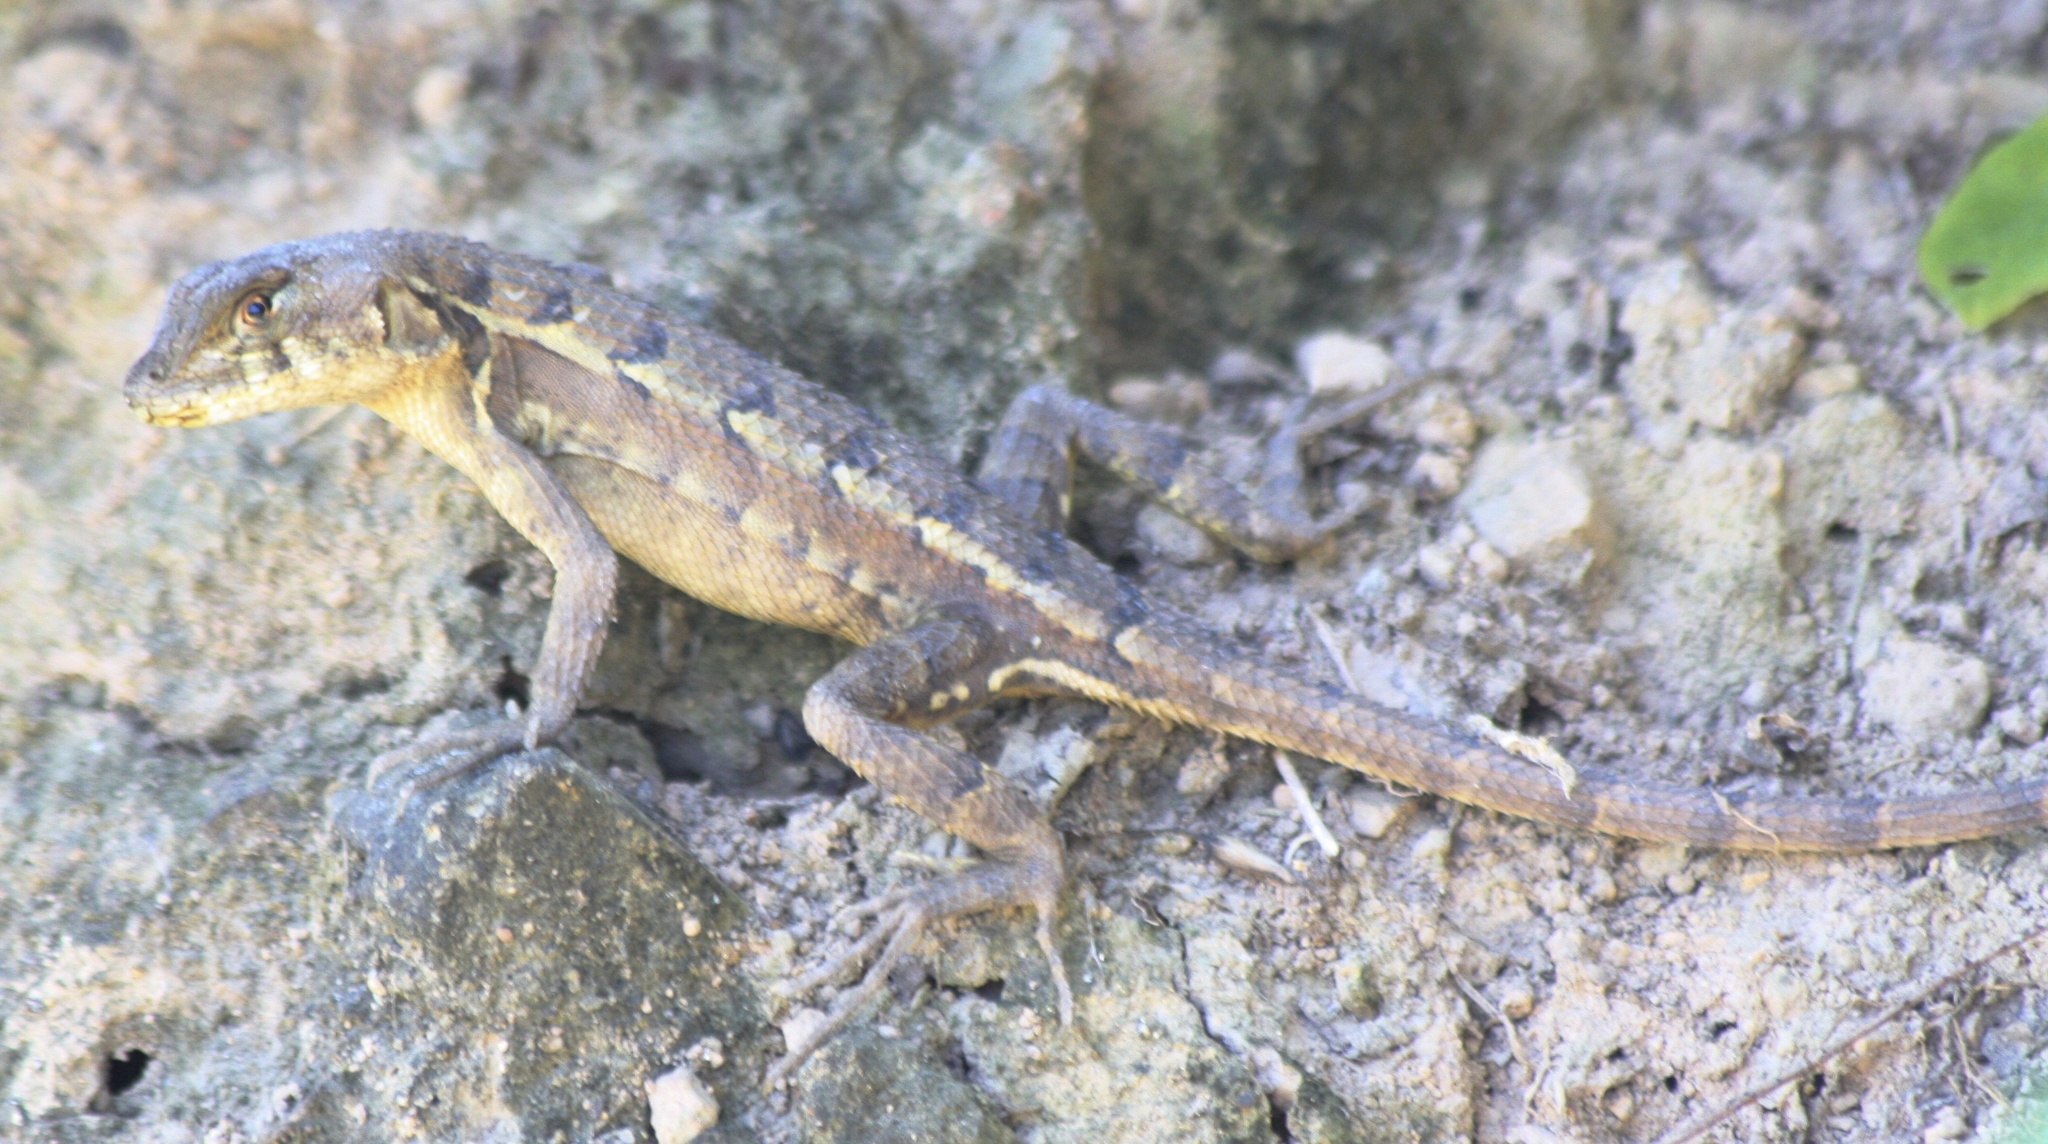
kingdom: Animalia
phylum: Chordata
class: Squamata
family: Phrynosomatidae
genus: Sceloporus
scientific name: Sceloporus utiformis
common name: Antesator
